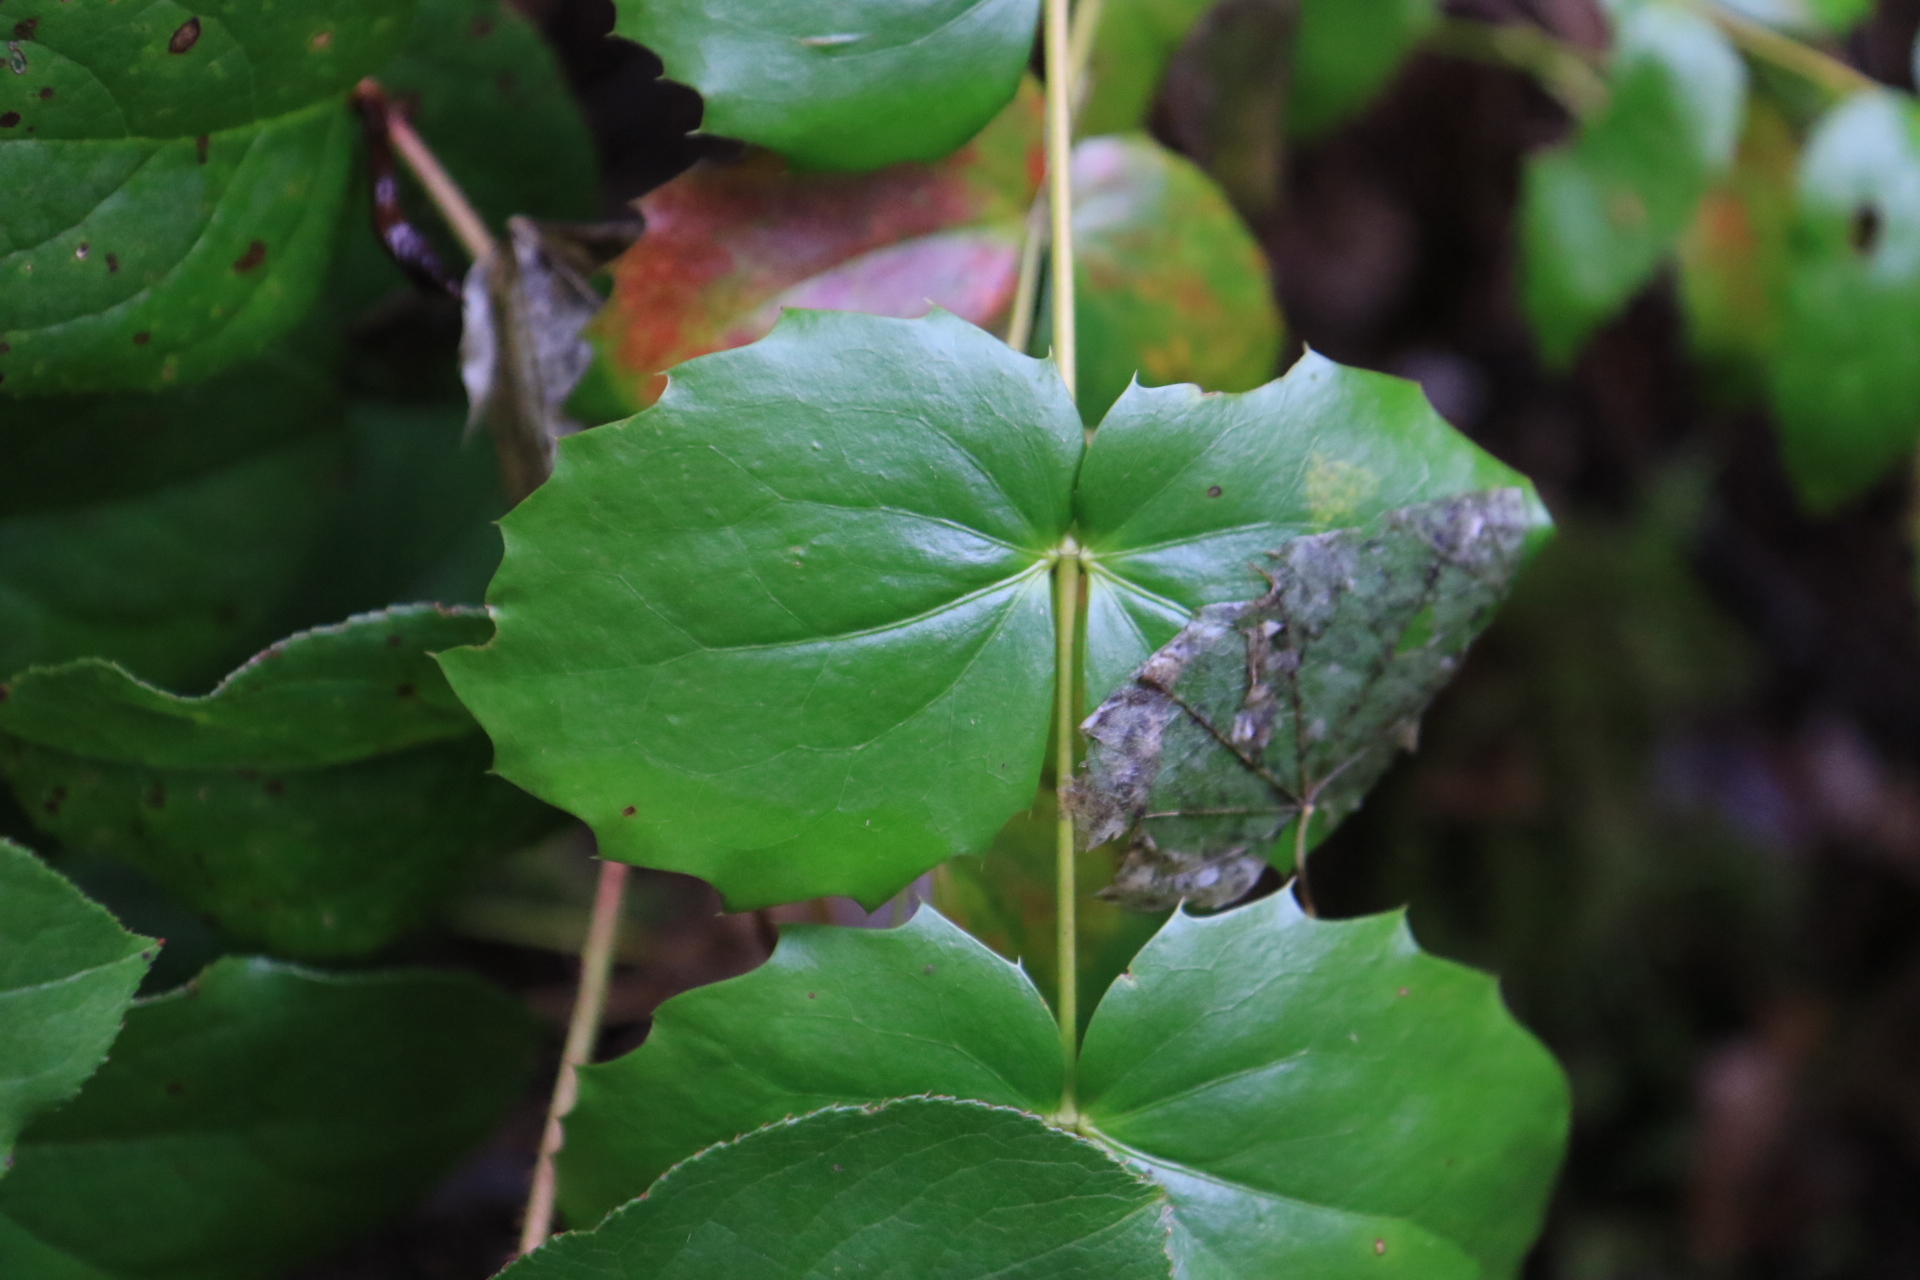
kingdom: Plantae
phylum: Tracheophyta
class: Magnoliopsida
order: Ranunculales
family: Berberidaceae
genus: Mahonia
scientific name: Mahonia nervosa
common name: Cascade oregon-grape
